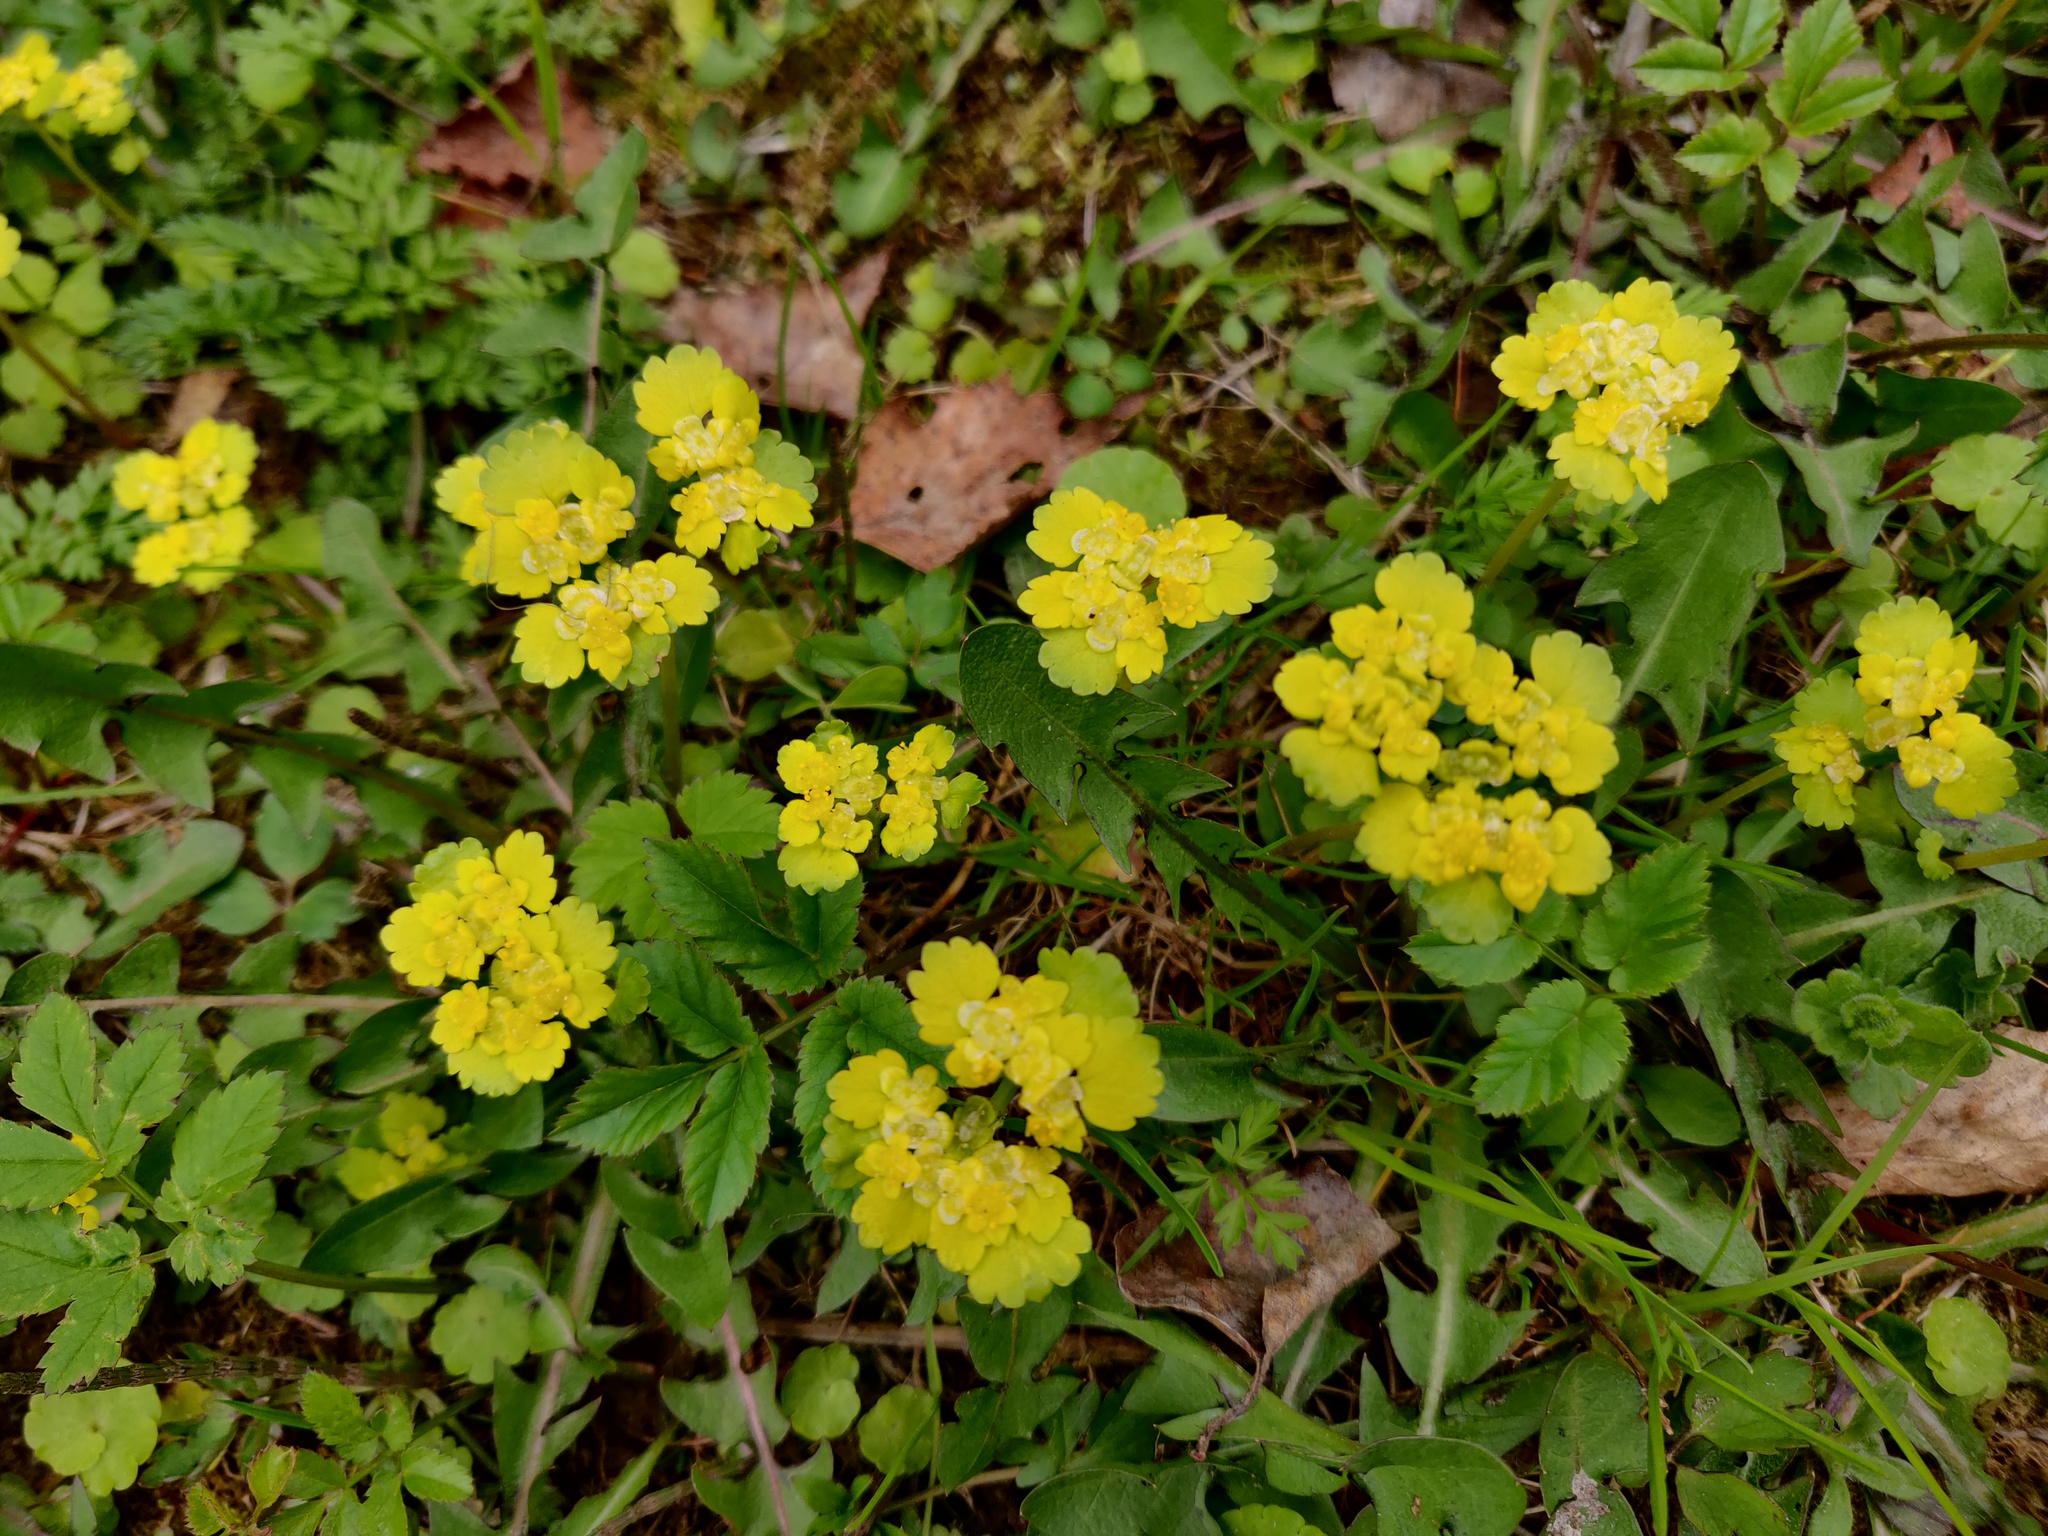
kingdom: Plantae
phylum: Tracheophyta
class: Magnoliopsida
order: Saxifragales
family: Saxifragaceae
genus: Chrysosplenium
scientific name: Chrysosplenium alternifolium
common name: Alternate-leaved golden-saxifrage
